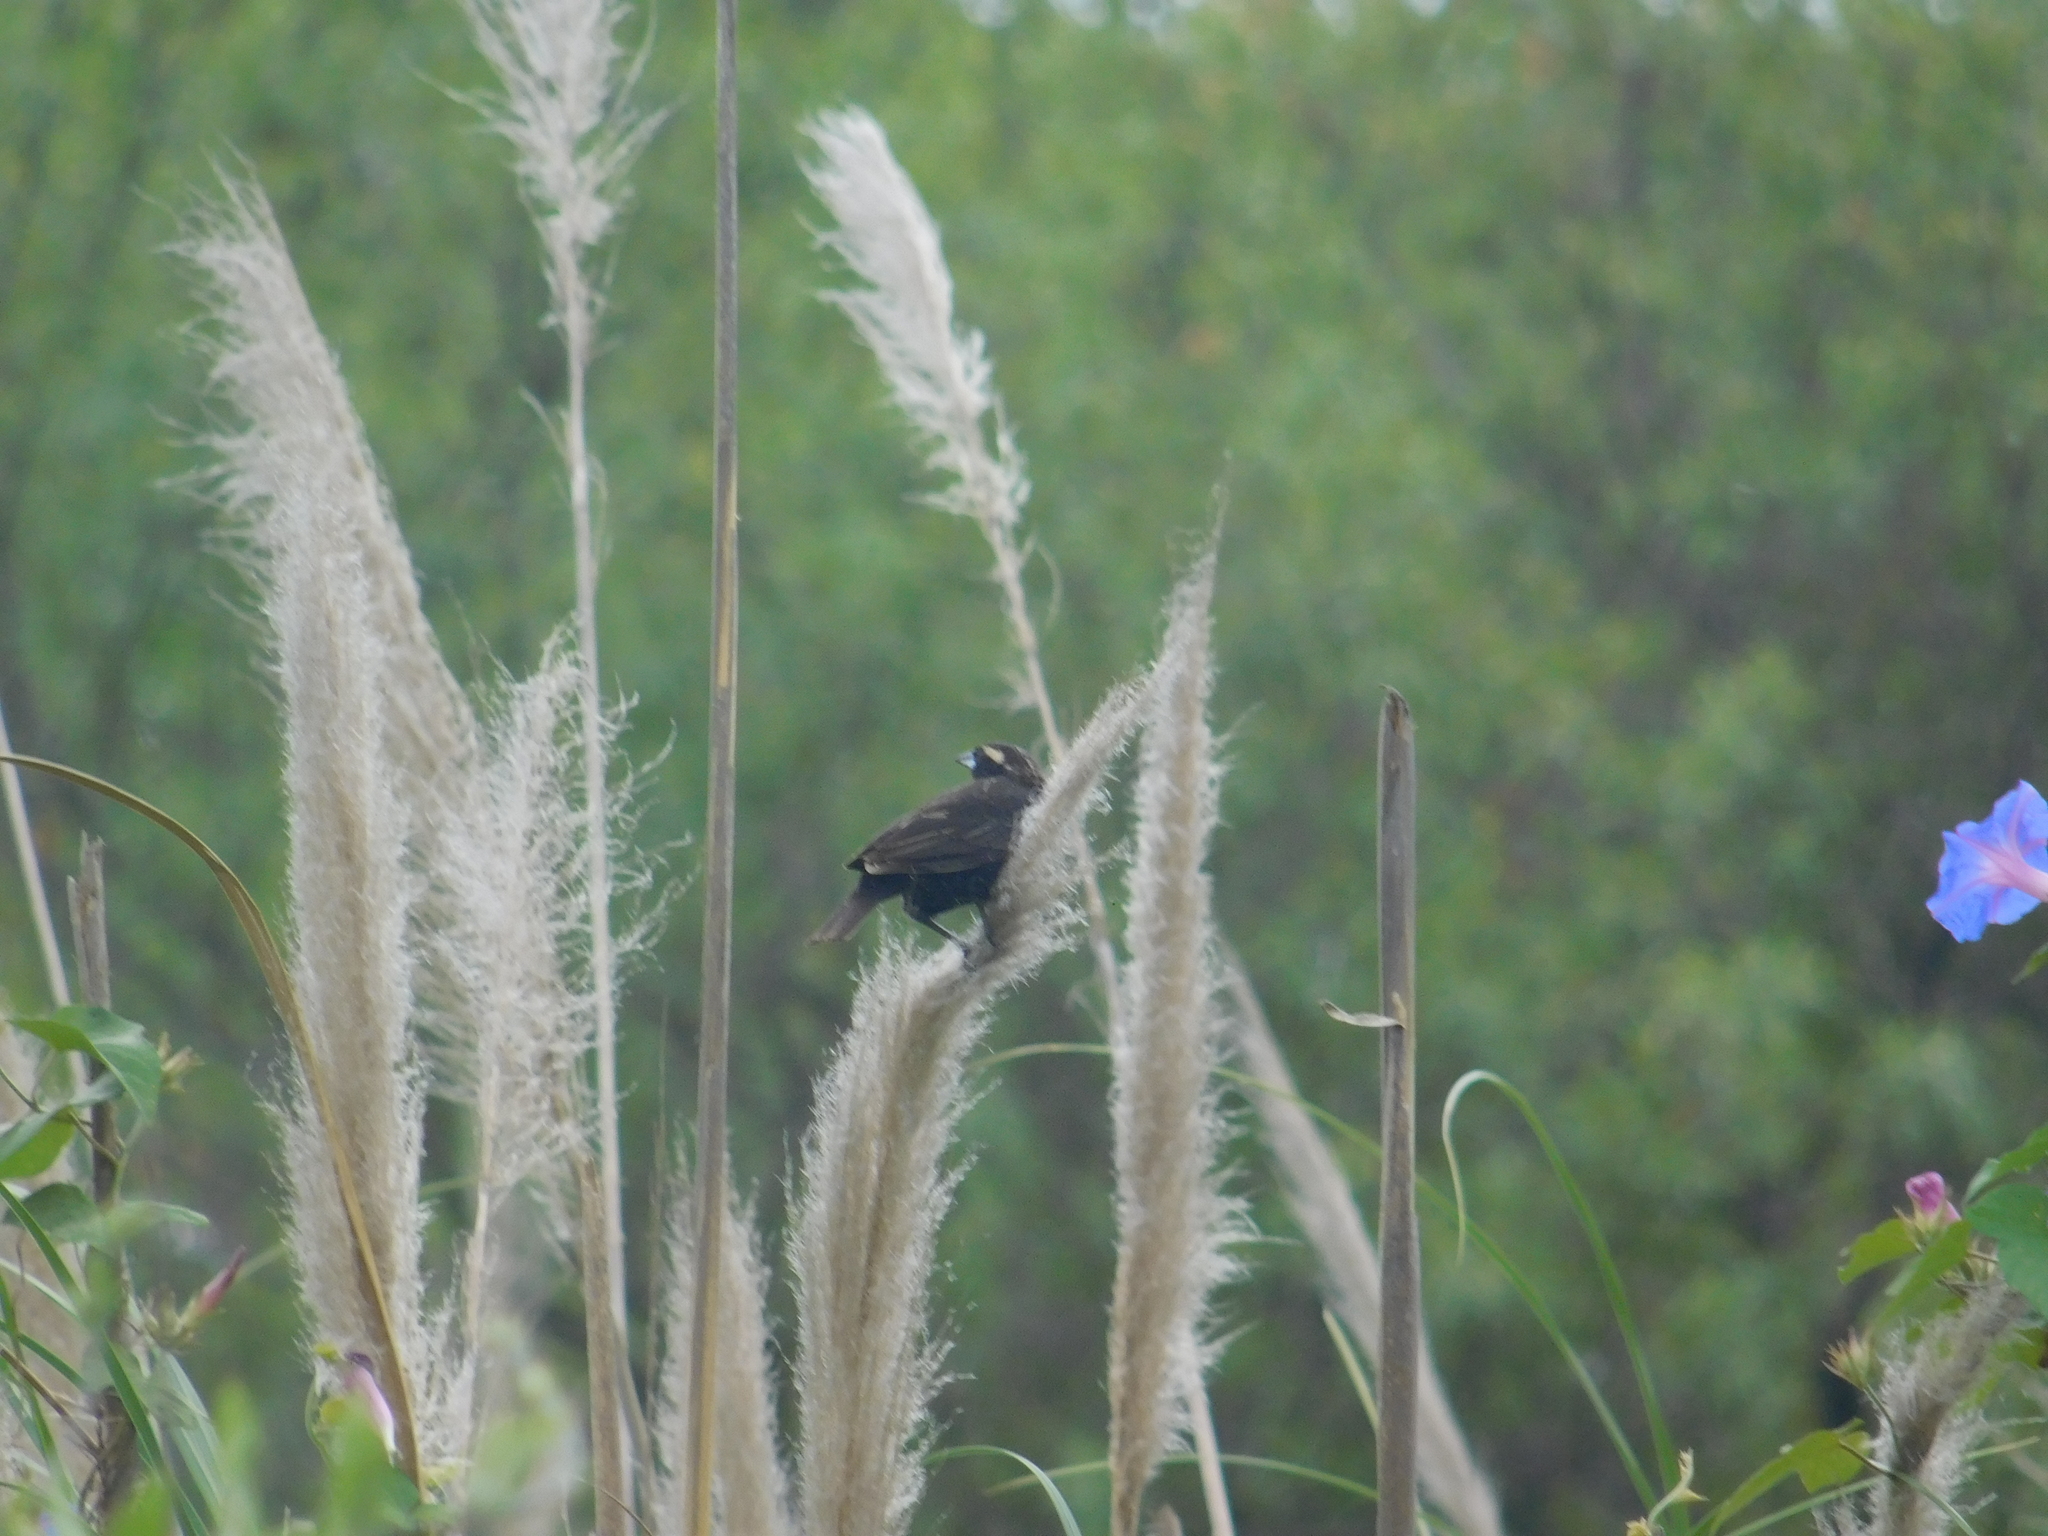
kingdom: Animalia
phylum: Chordata
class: Aves
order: Passeriformes
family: Icteridae
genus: Sturnella
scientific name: Sturnella superciliaris
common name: White-browed blackbird
